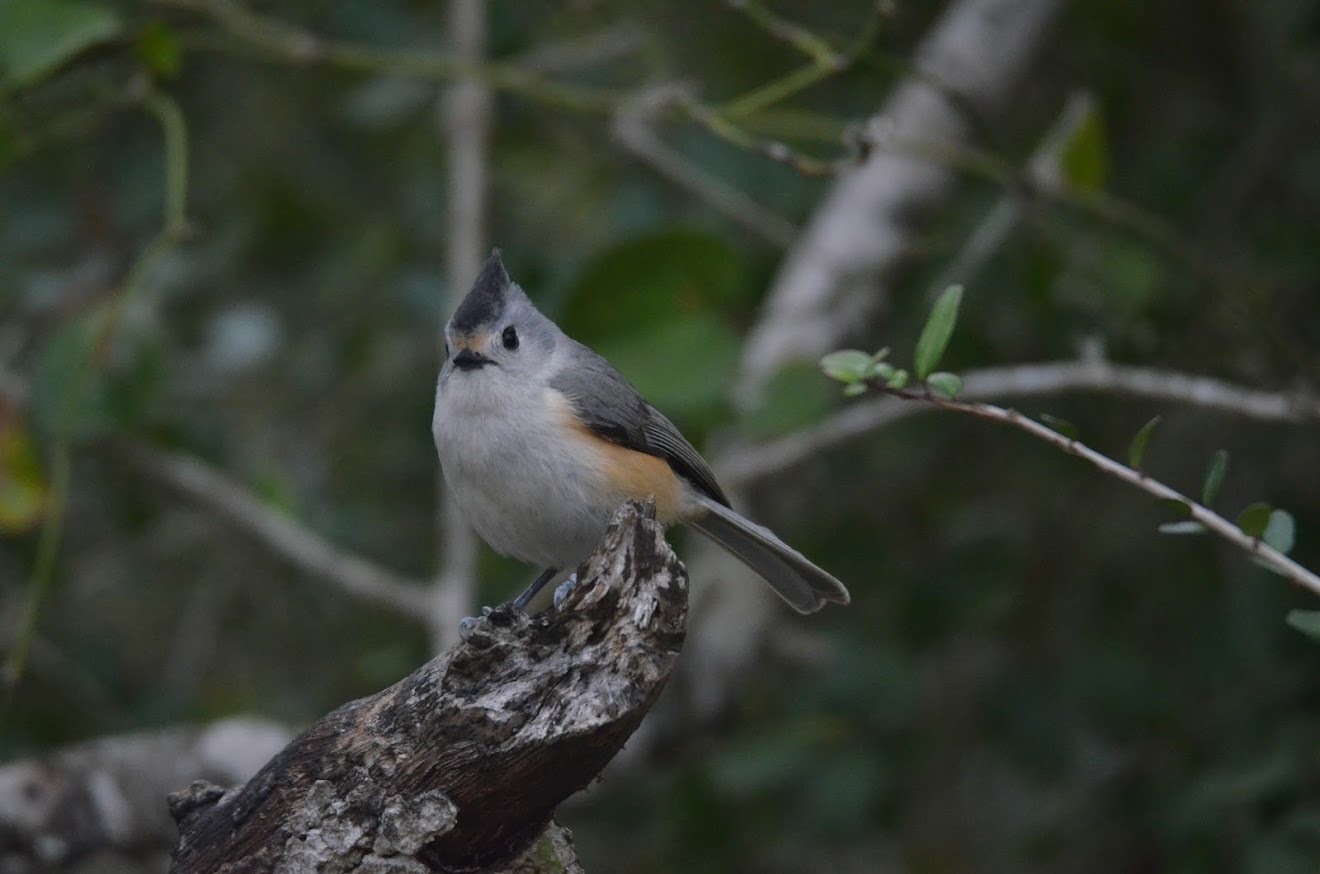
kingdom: Animalia
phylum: Chordata
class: Aves
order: Passeriformes
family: Paridae
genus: Baeolophus
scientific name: Baeolophus atricristatus
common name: Black-crested titmouse
